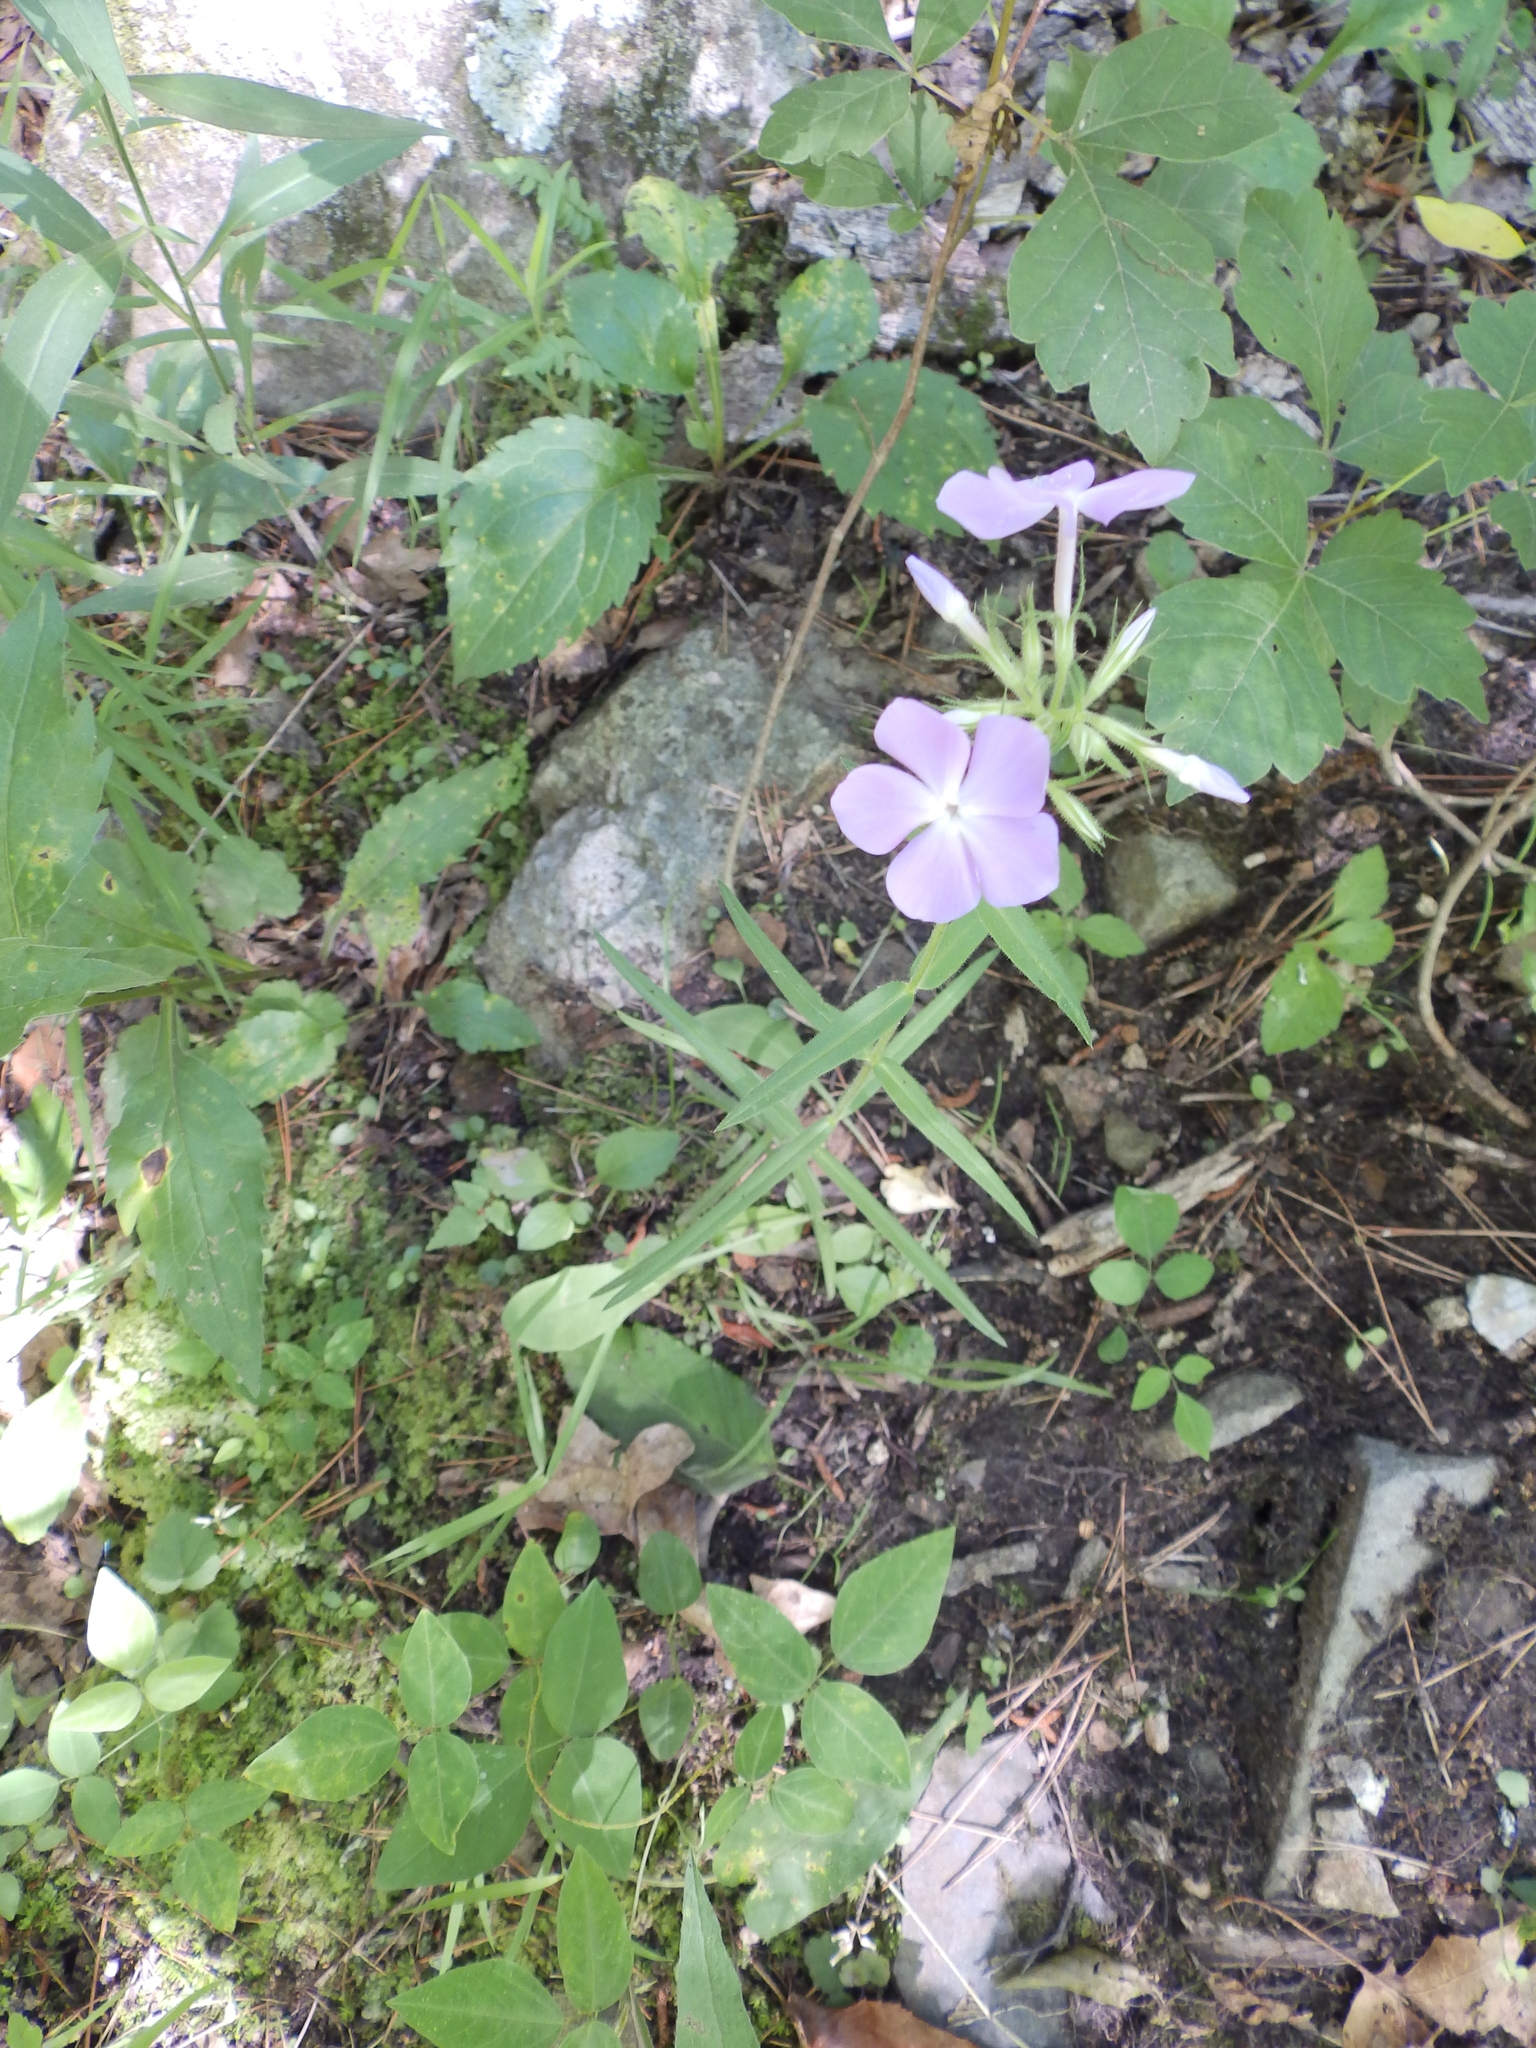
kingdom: Plantae
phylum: Tracheophyta
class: Magnoliopsida
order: Ericales
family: Polemoniaceae
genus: Phlox
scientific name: Phlox pilosa
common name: Prairie phlox
